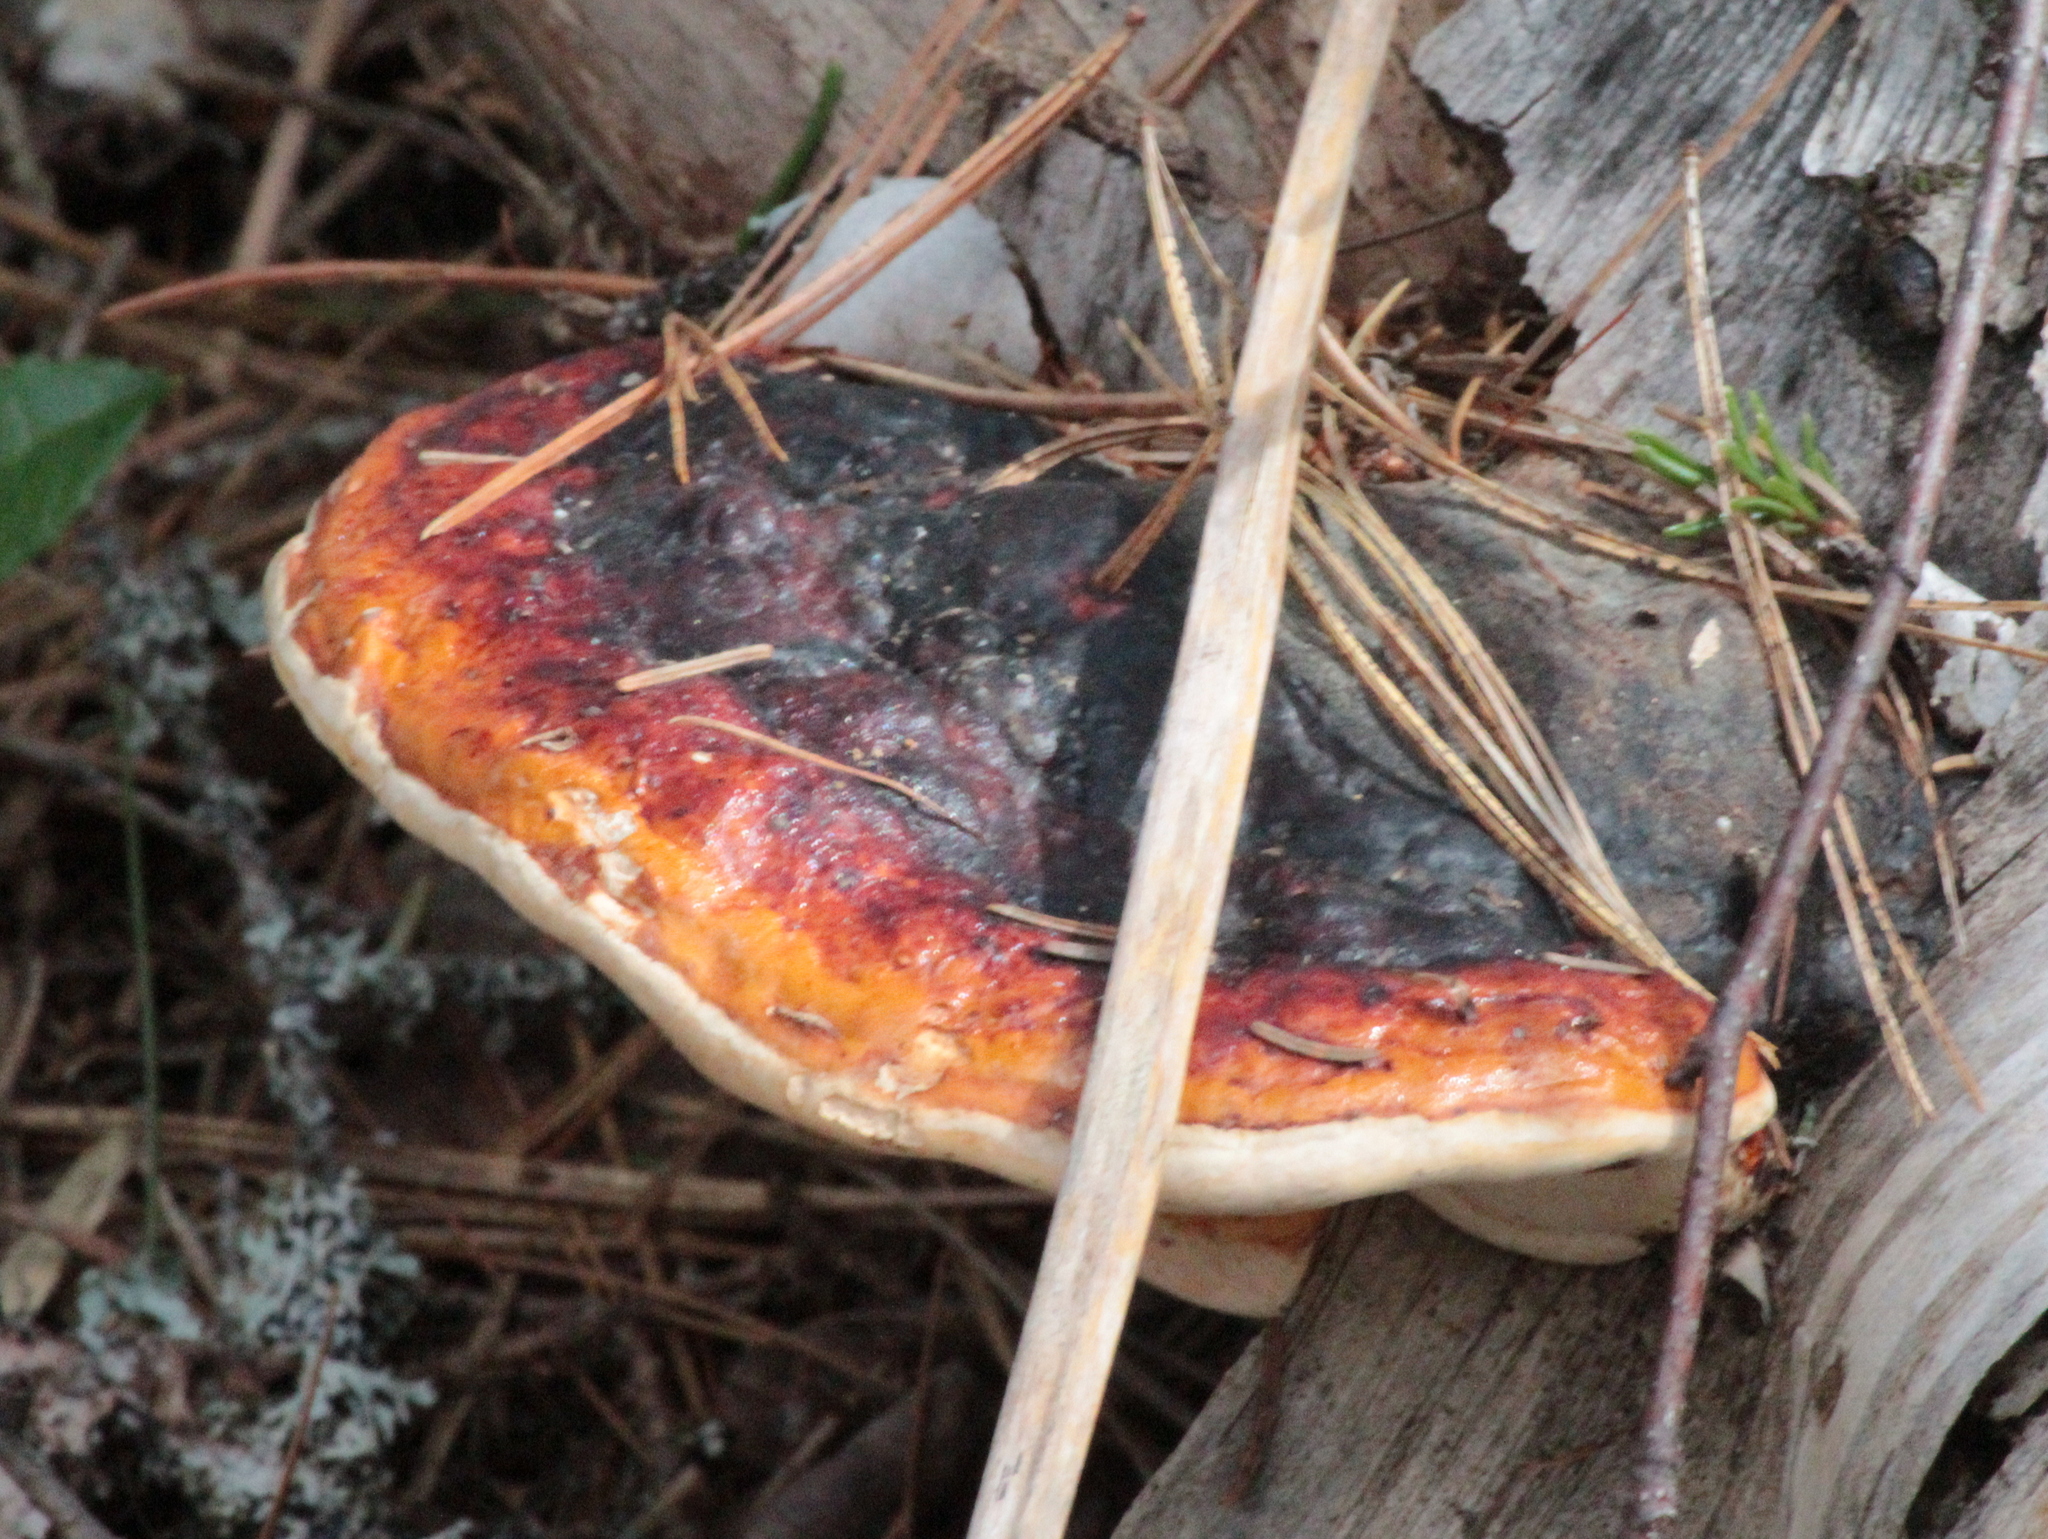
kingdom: Fungi
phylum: Basidiomycota
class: Agaricomycetes
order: Polyporales
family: Fomitopsidaceae
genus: Fomitopsis
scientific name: Fomitopsis mounceae
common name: Northern red belt
